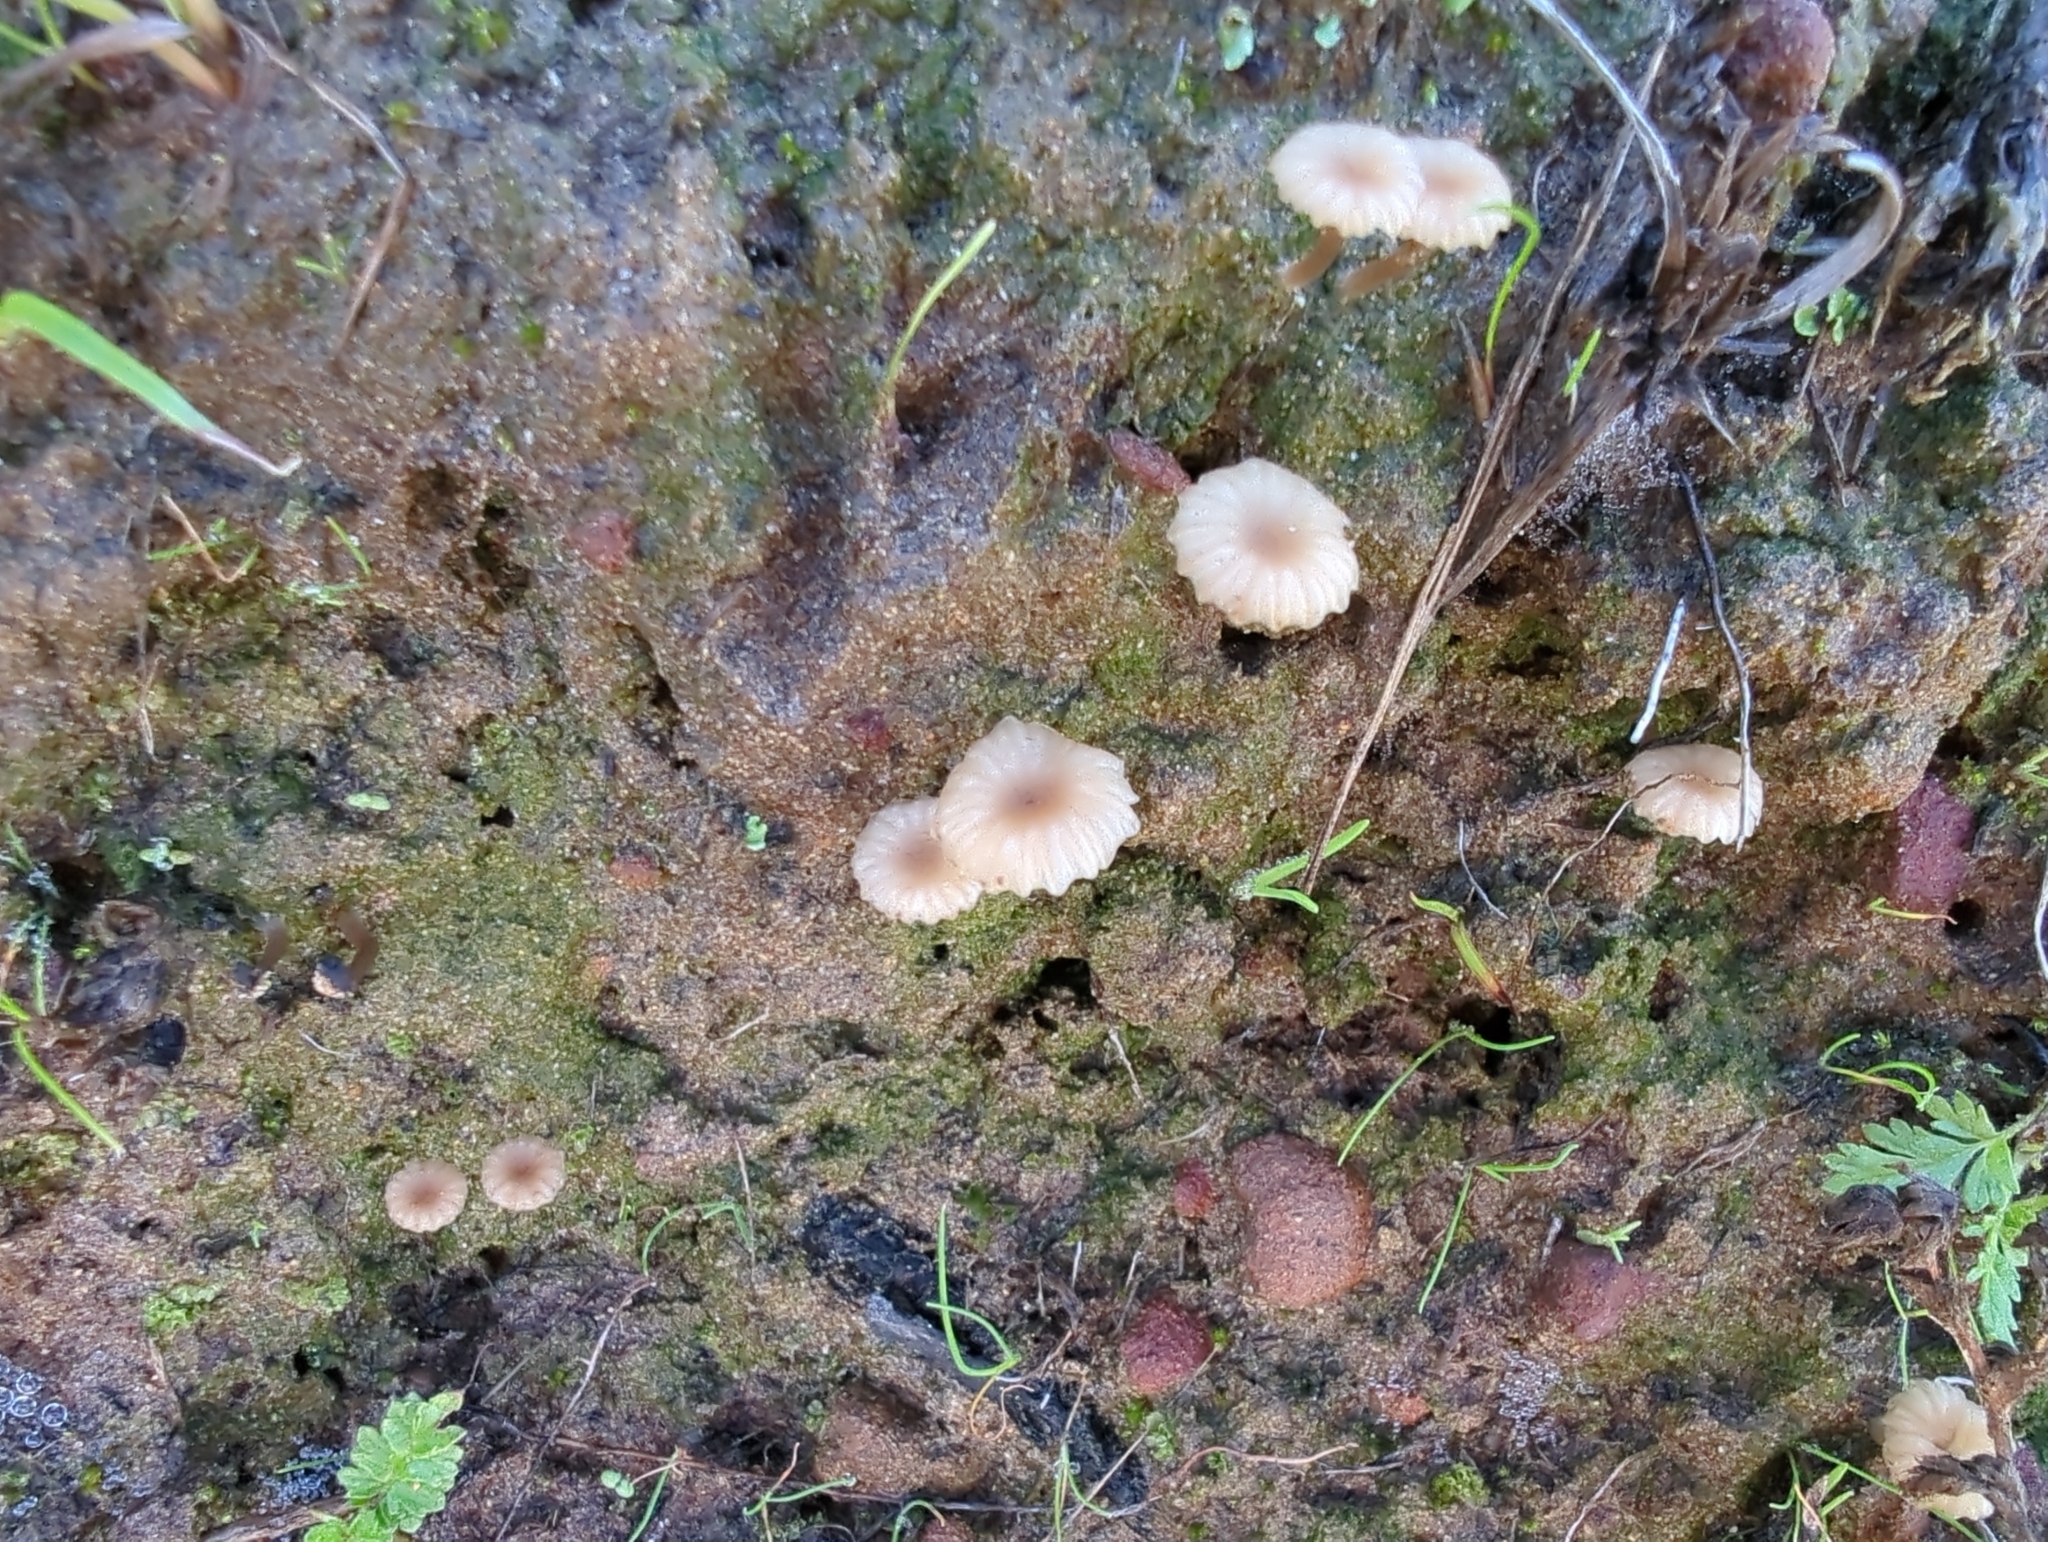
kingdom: Fungi
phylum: Basidiomycota
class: Agaricomycetes
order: Agaricales
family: Hygrophoraceae
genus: Lichenomphalia
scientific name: Lichenomphalia
